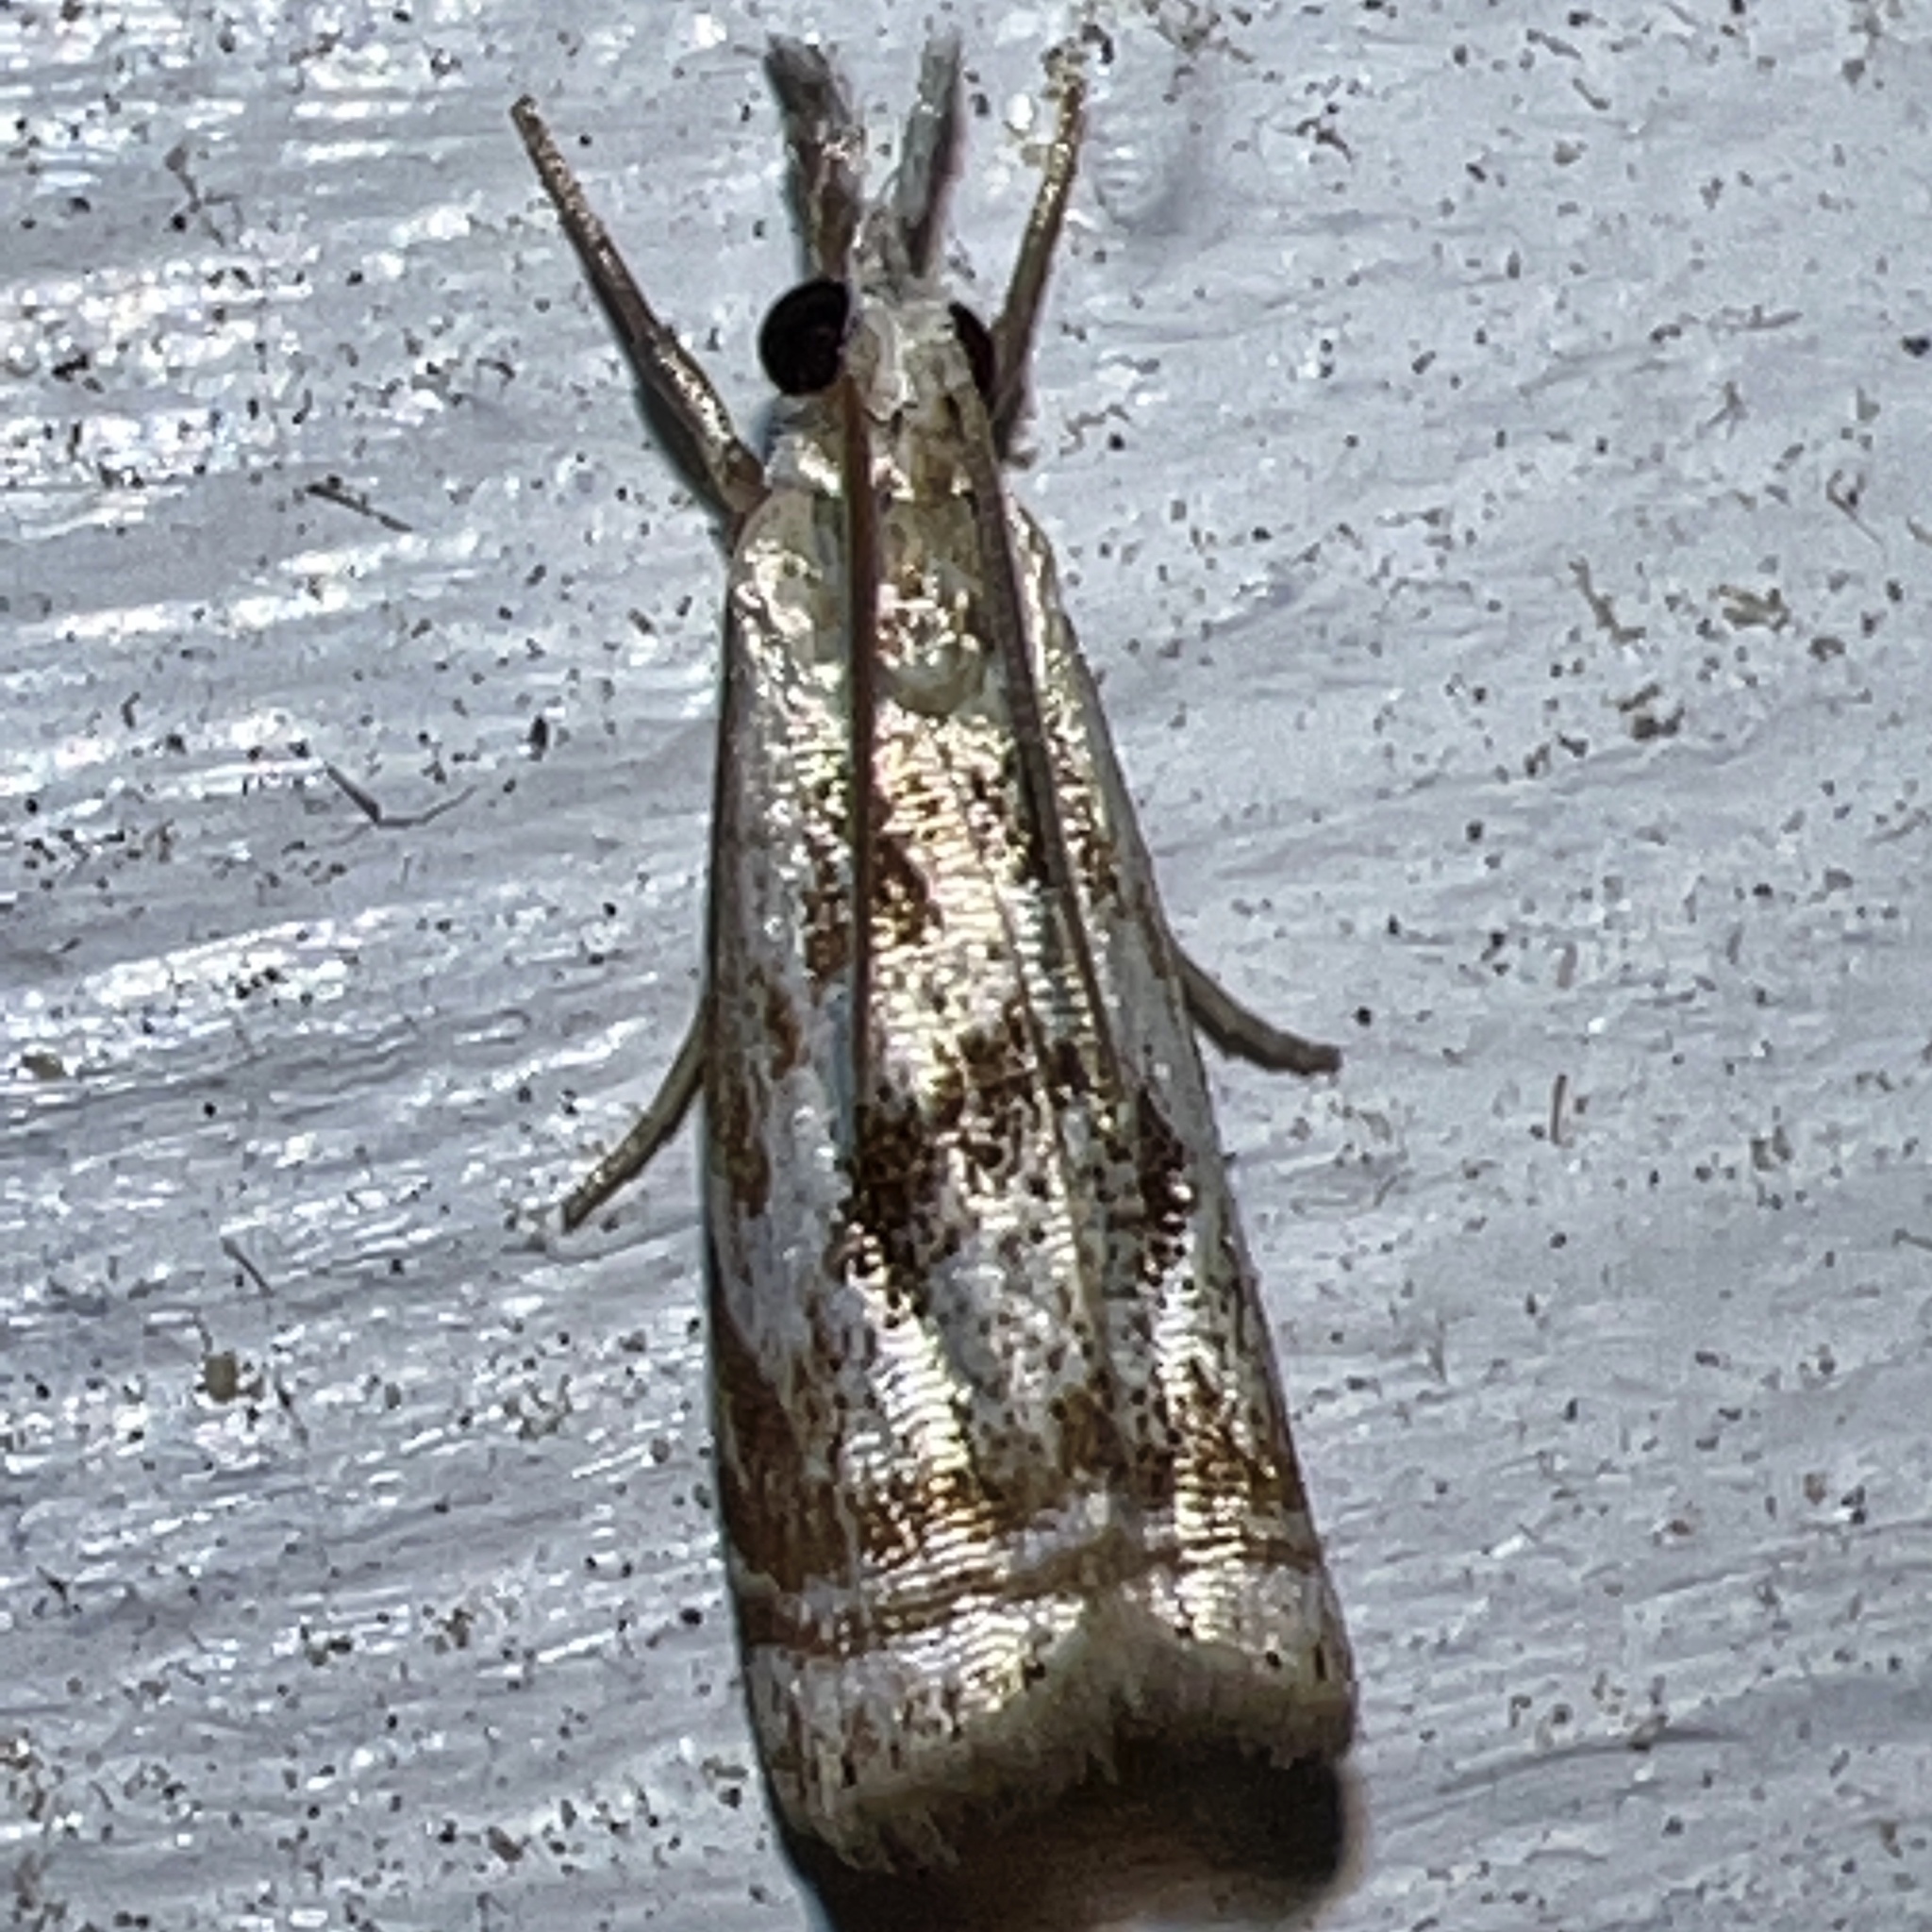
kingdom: Animalia
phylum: Arthropoda
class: Insecta
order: Lepidoptera
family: Crambidae
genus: Microcrambus
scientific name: Microcrambus elegans
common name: Elegant grass-veneer
